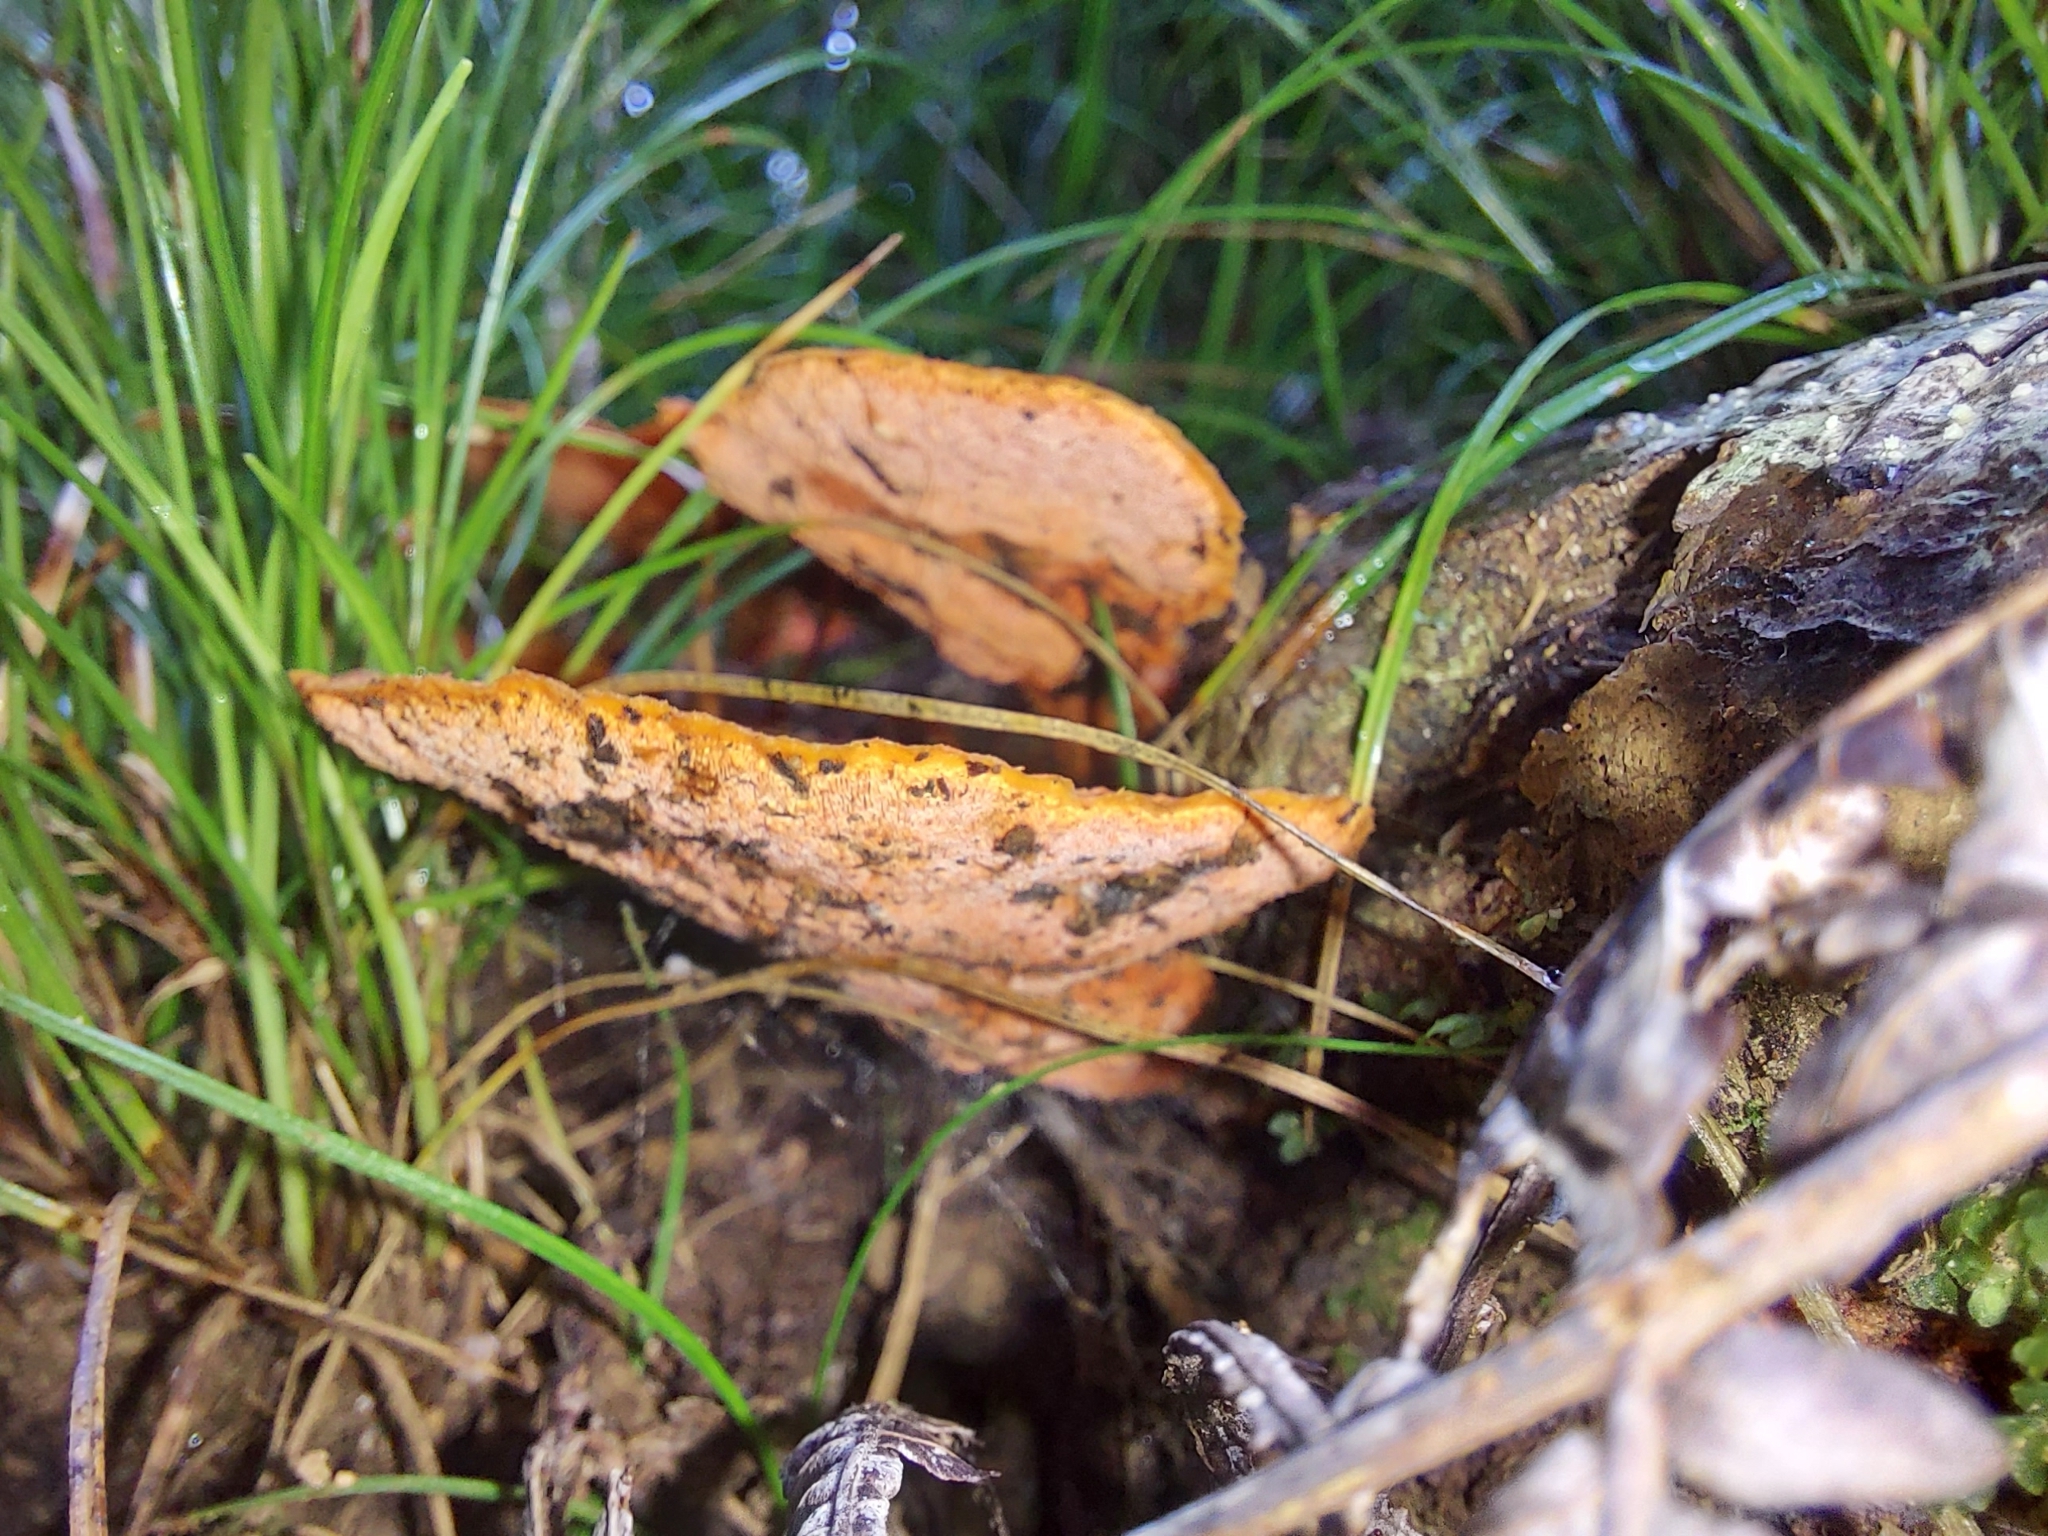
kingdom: Fungi
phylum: Basidiomycota
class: Agaricomycetes
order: Polyporales
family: Polyporaceae
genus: Trametes
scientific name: Trametes coccinea
